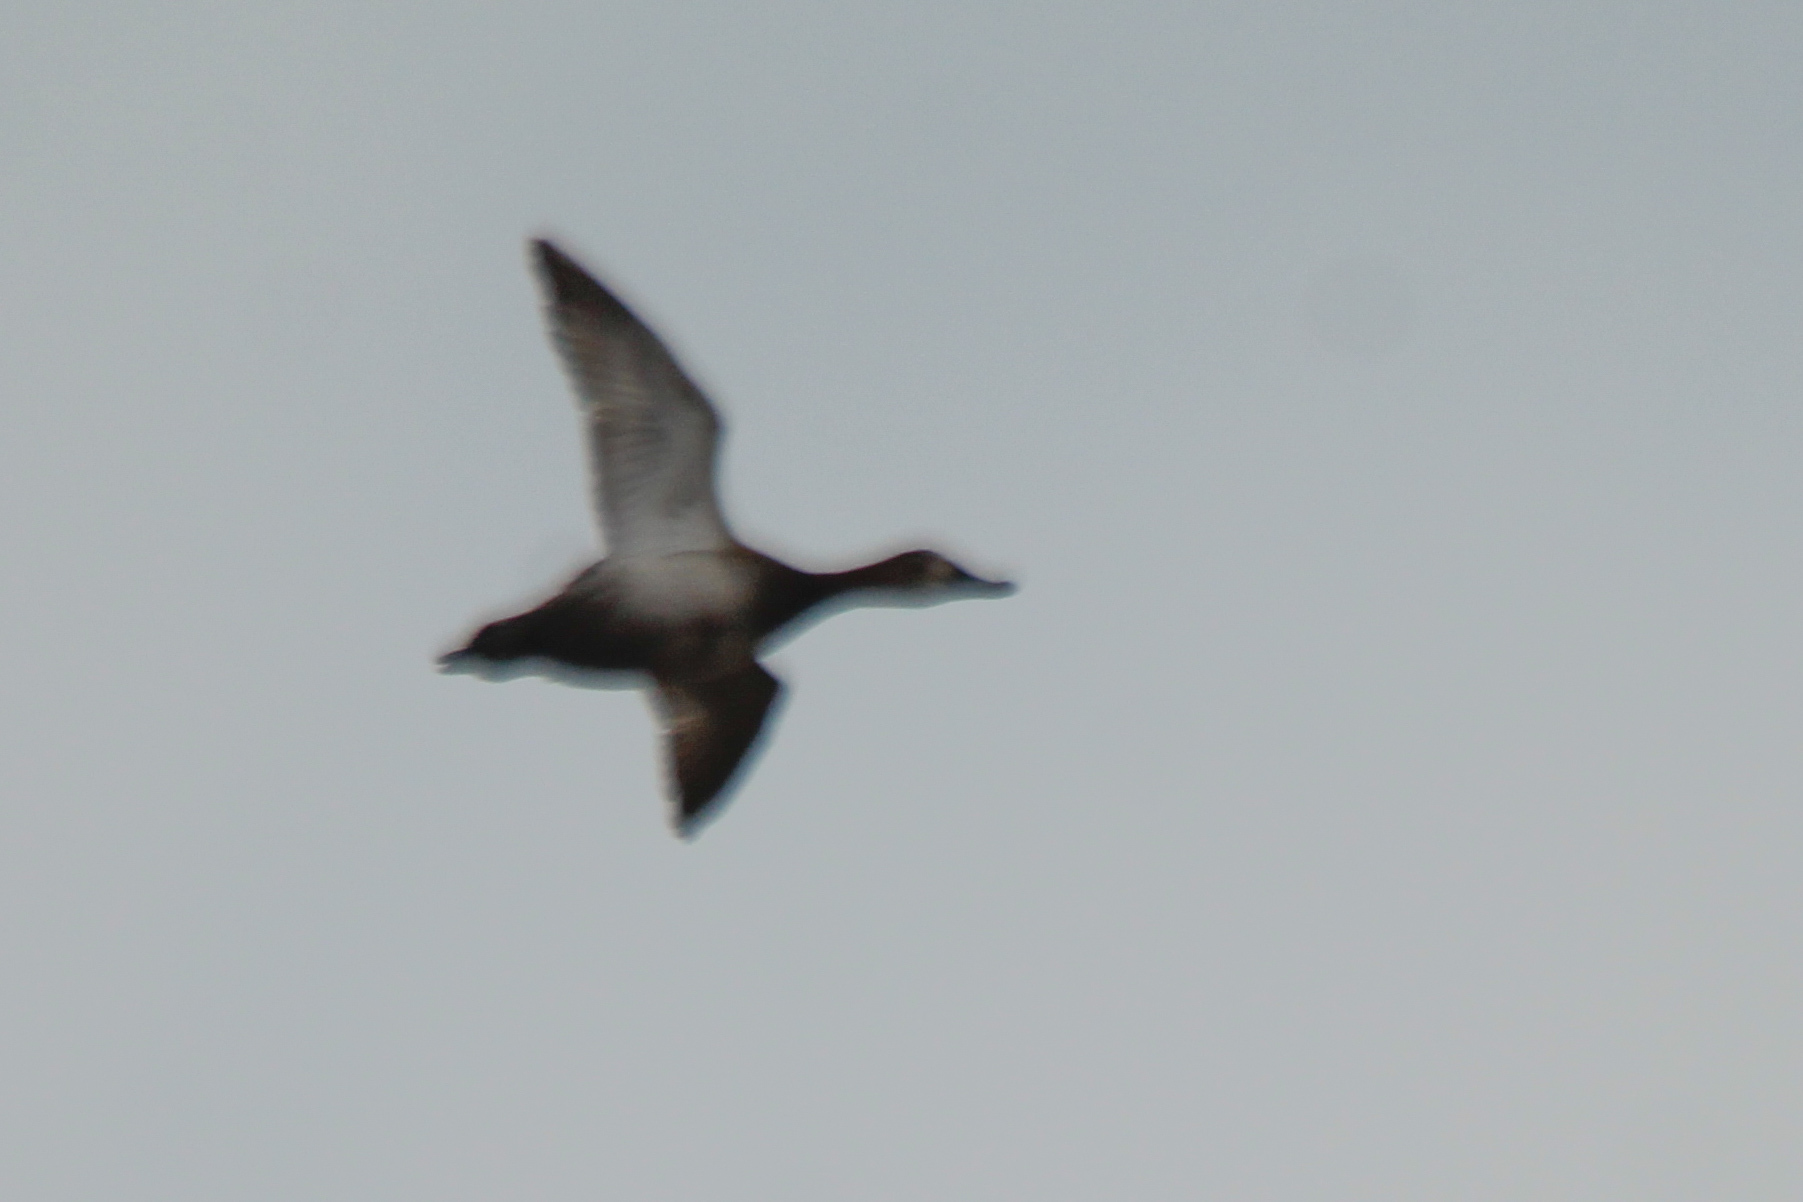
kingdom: Animalia
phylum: Chordata
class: Aves
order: Anseriformes
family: Anatidae
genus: Aythya
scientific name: Aythya ferina
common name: Common pochard
